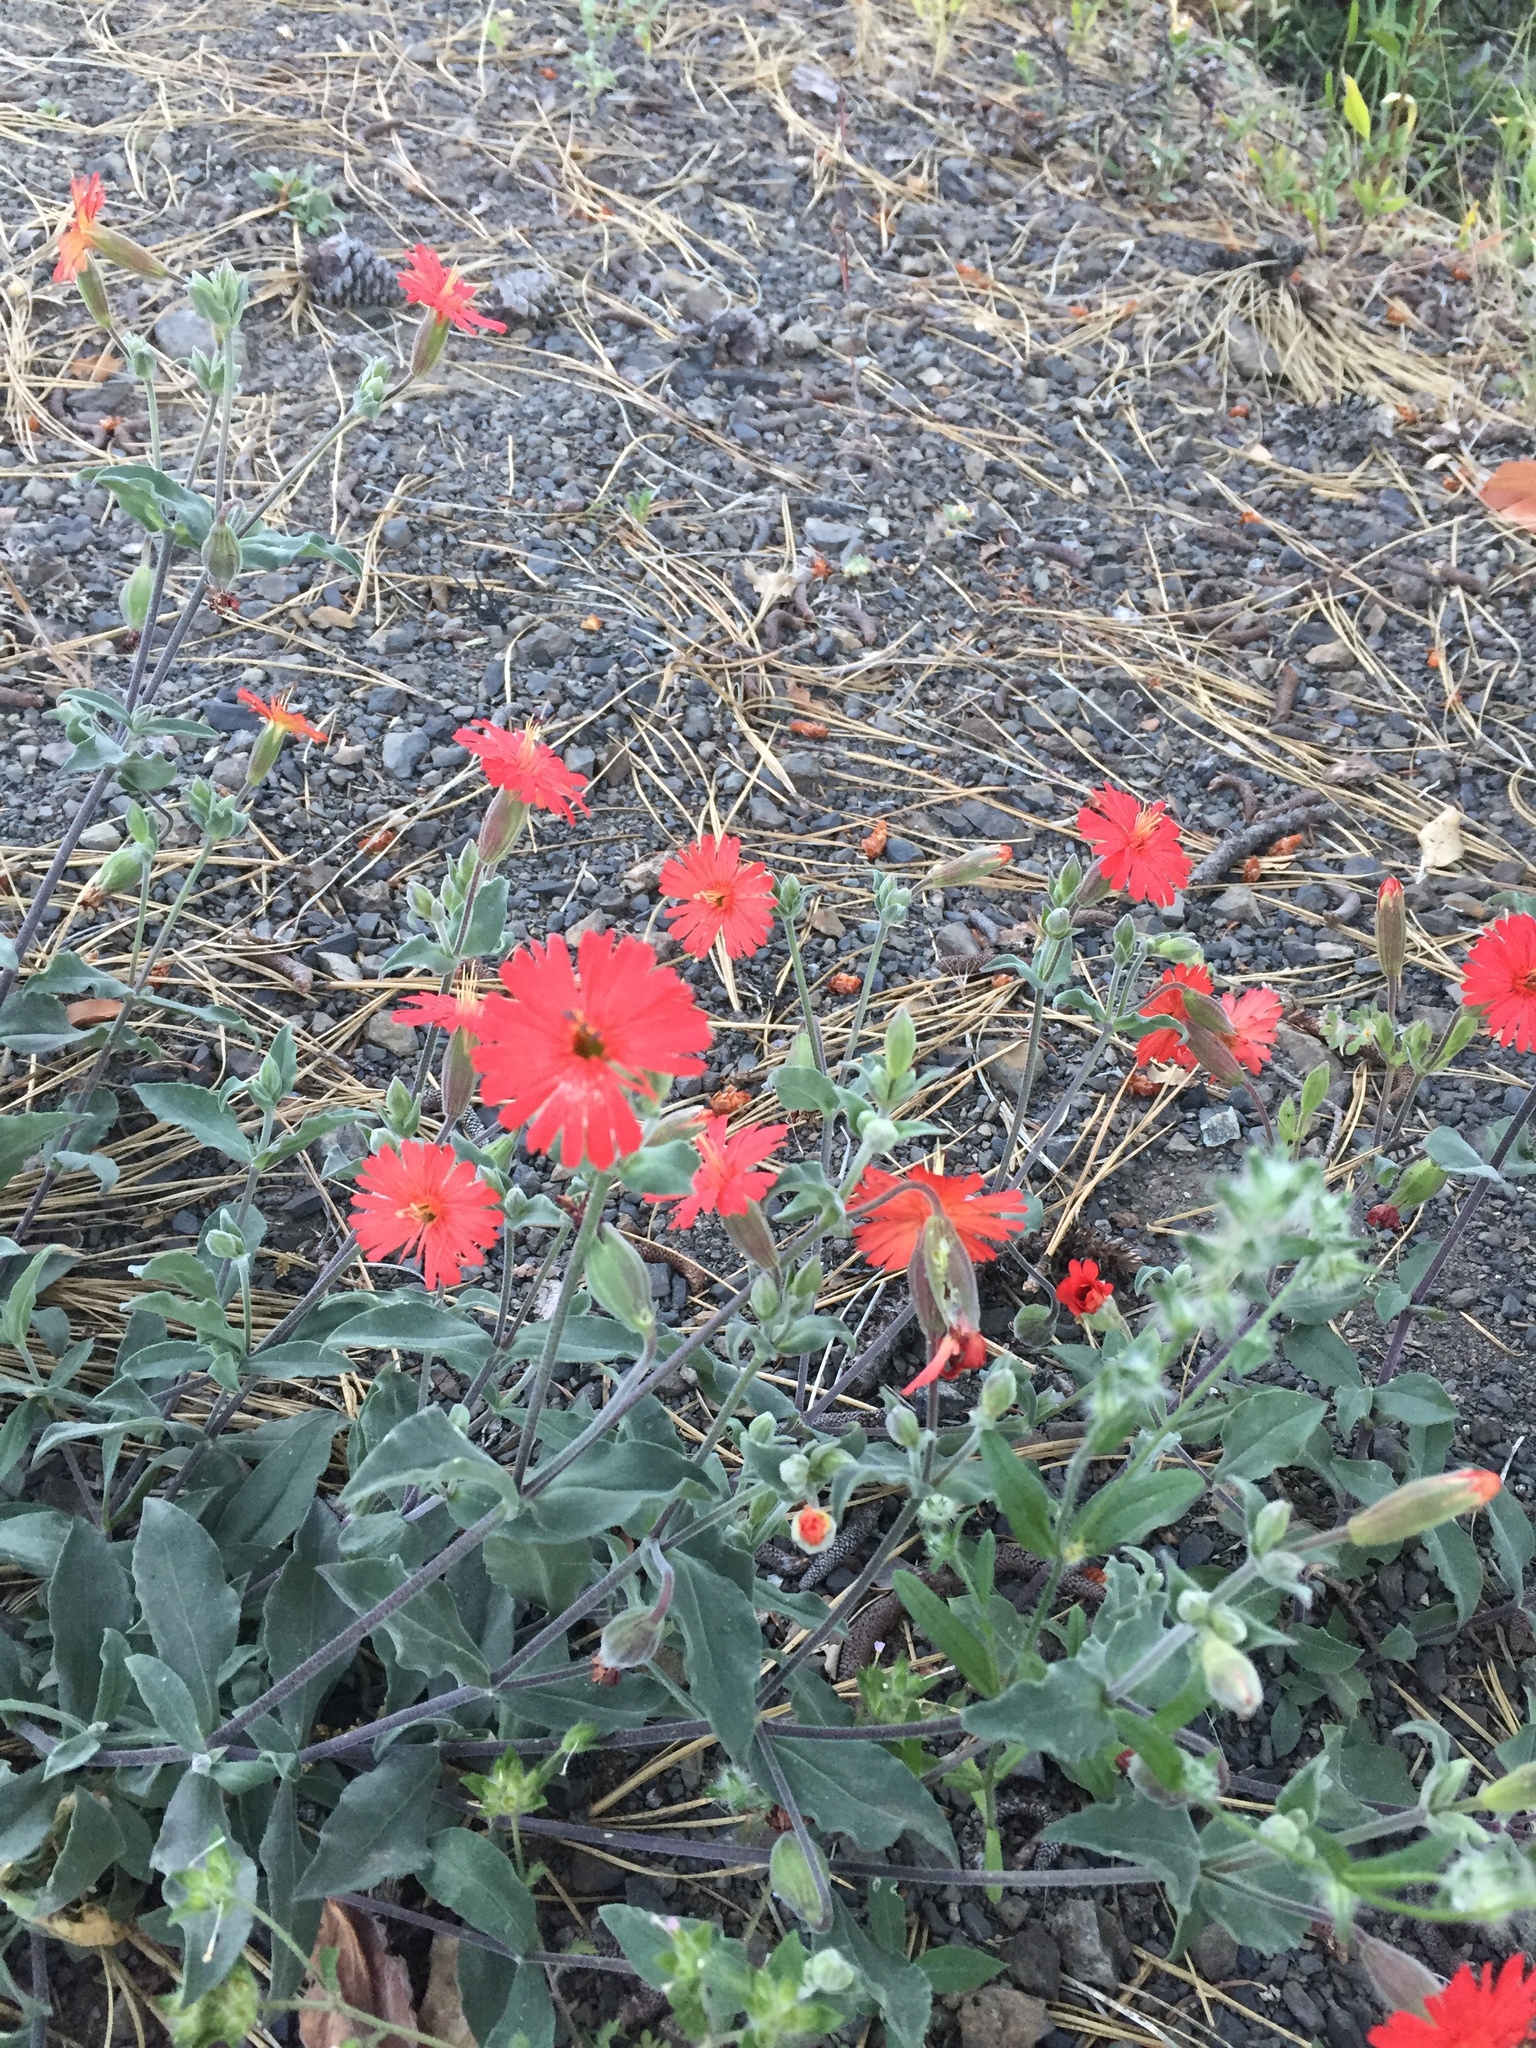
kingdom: Plantae
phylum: Tracheophyta
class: Magnoliopsida
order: Caryophyllales
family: Caryophyllaceae
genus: Silene
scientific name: Silene laciniata
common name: Indian-pink
